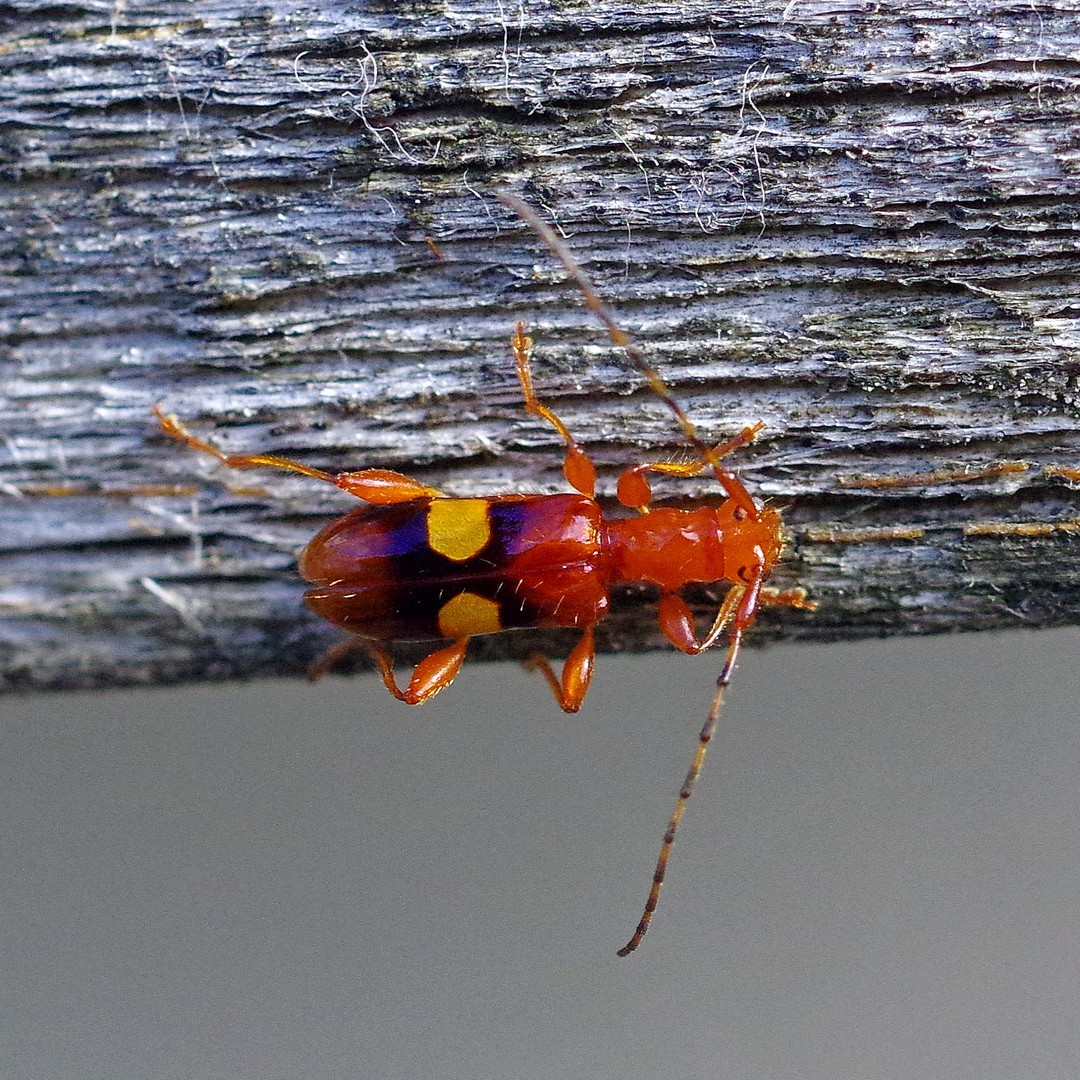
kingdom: Animalia
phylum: Arthropoda
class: Insecta
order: Coleoptera
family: Cerambycidae
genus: Zorion
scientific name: Zorion australe
